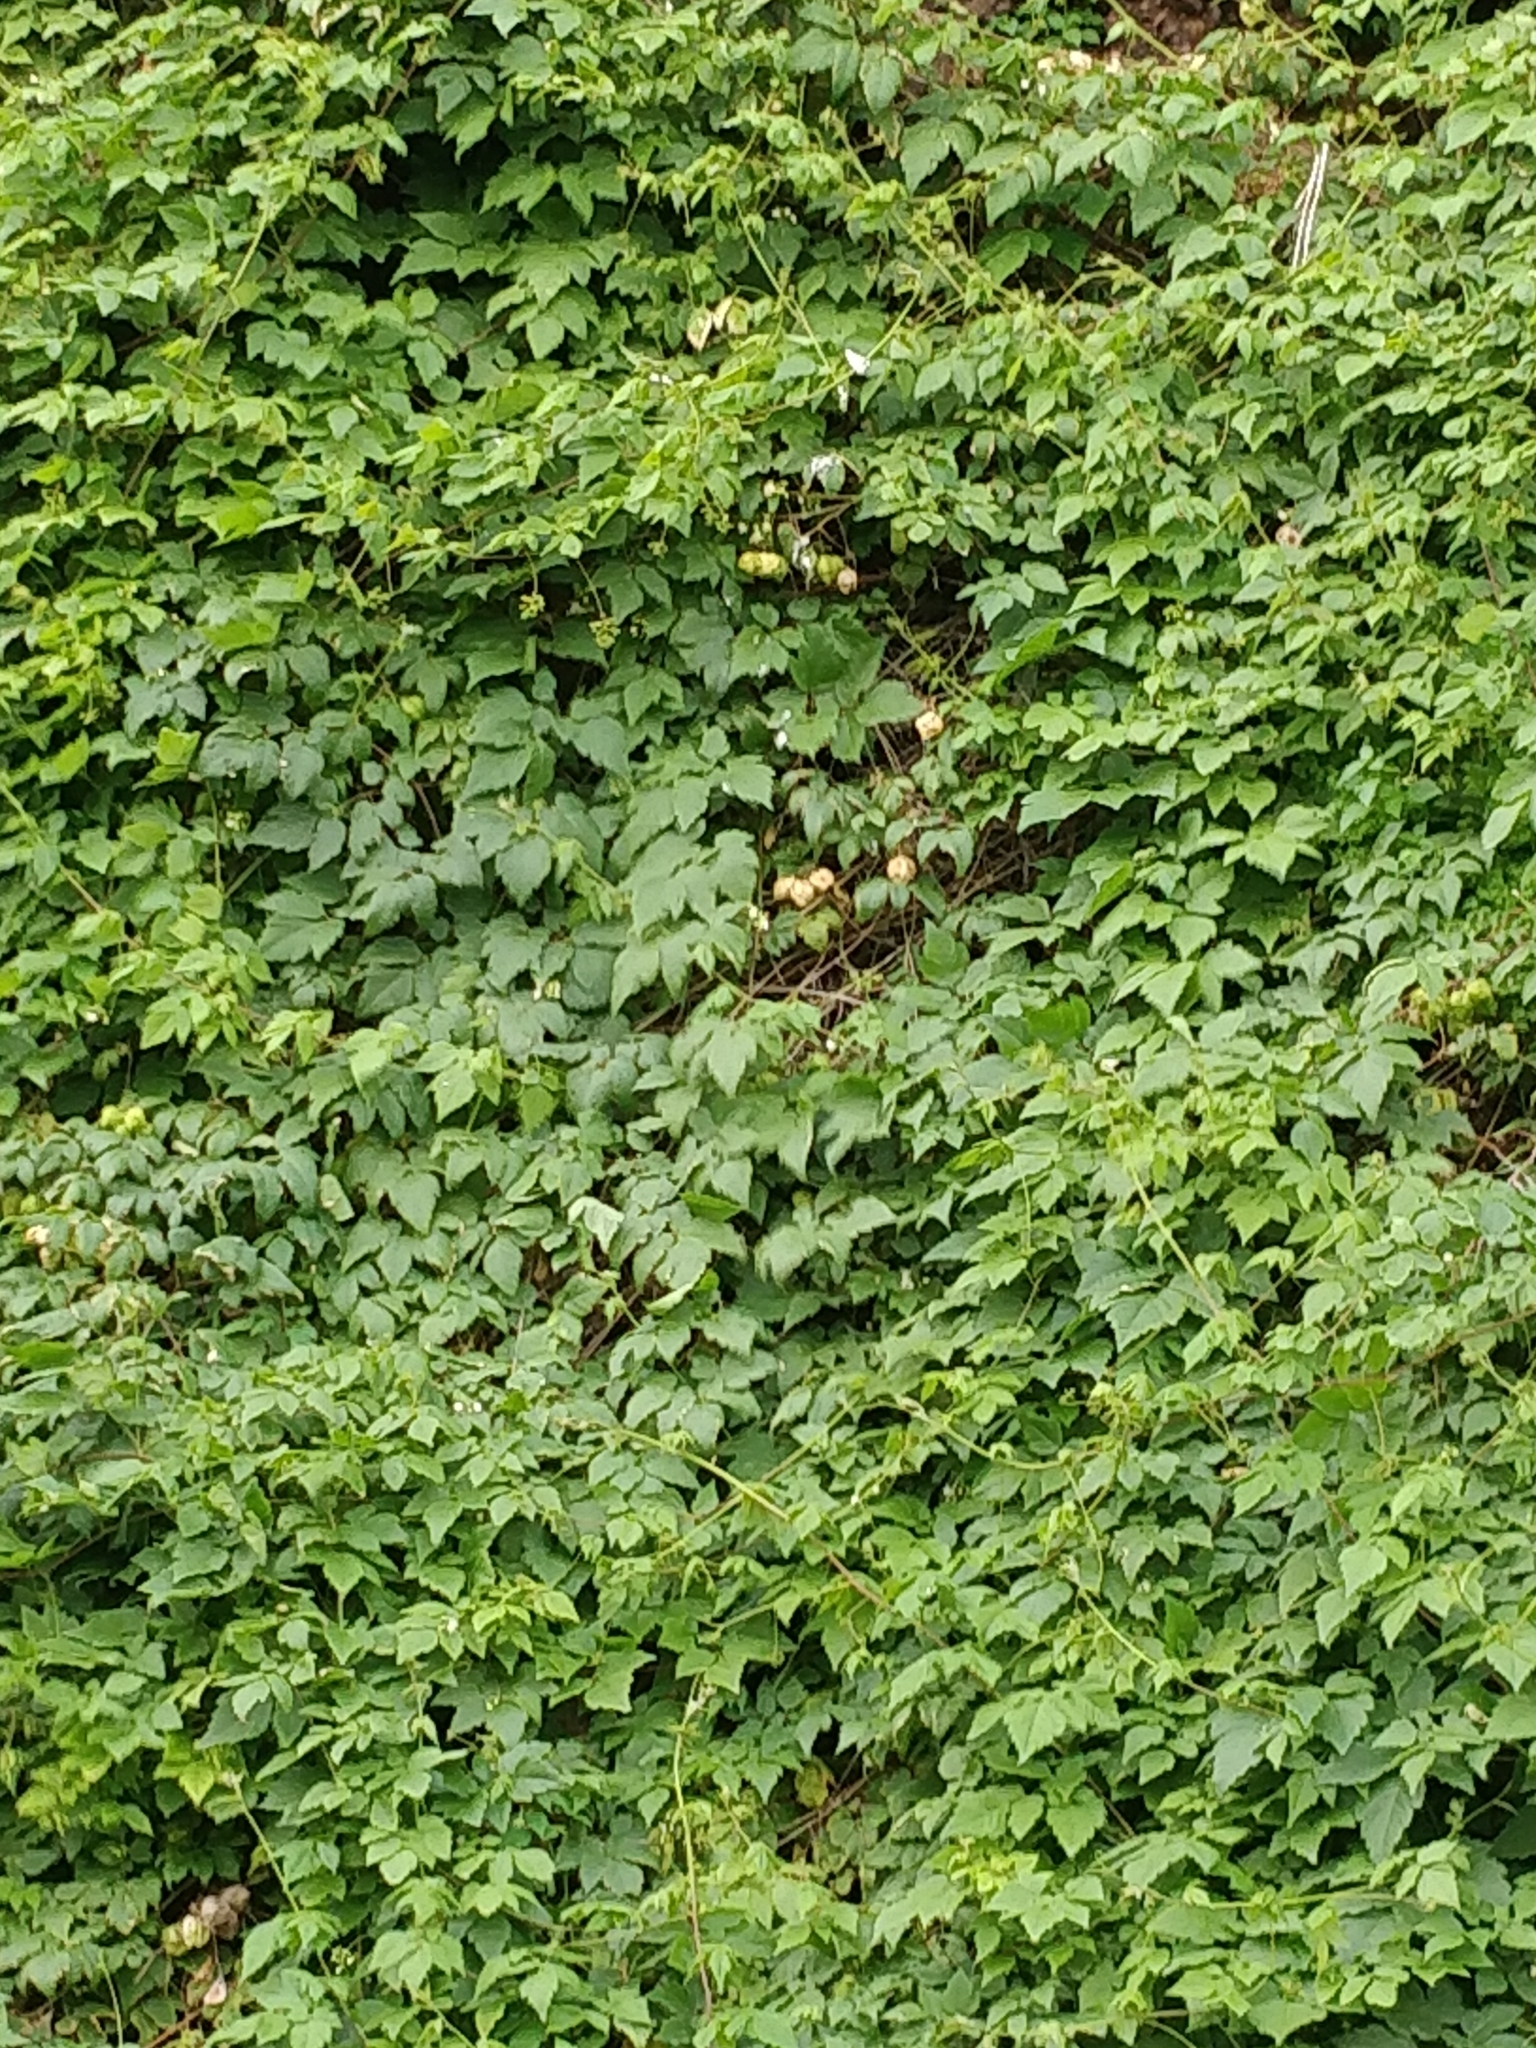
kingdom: Plantae
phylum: Tracheophyta
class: Magnoliopsida
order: Sapindales
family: Sapindaceae
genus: Cardiospermum
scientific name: Cardiospermum grandiflorum
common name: Balloon vine
